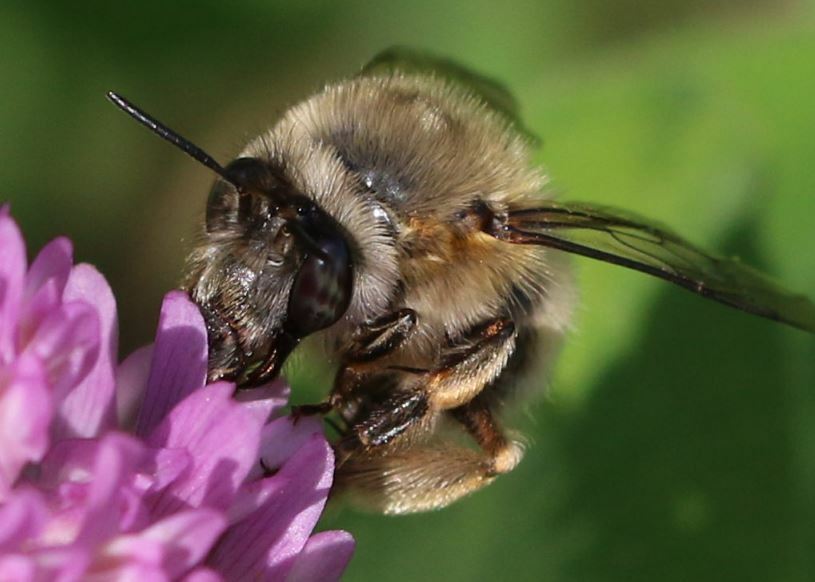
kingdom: Animalia
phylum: Arthropoda
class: Insecta
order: Hymenoptera
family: Apidae
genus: Anthophora
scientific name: Anthophora plumipes
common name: Hairy-footed flower bee
